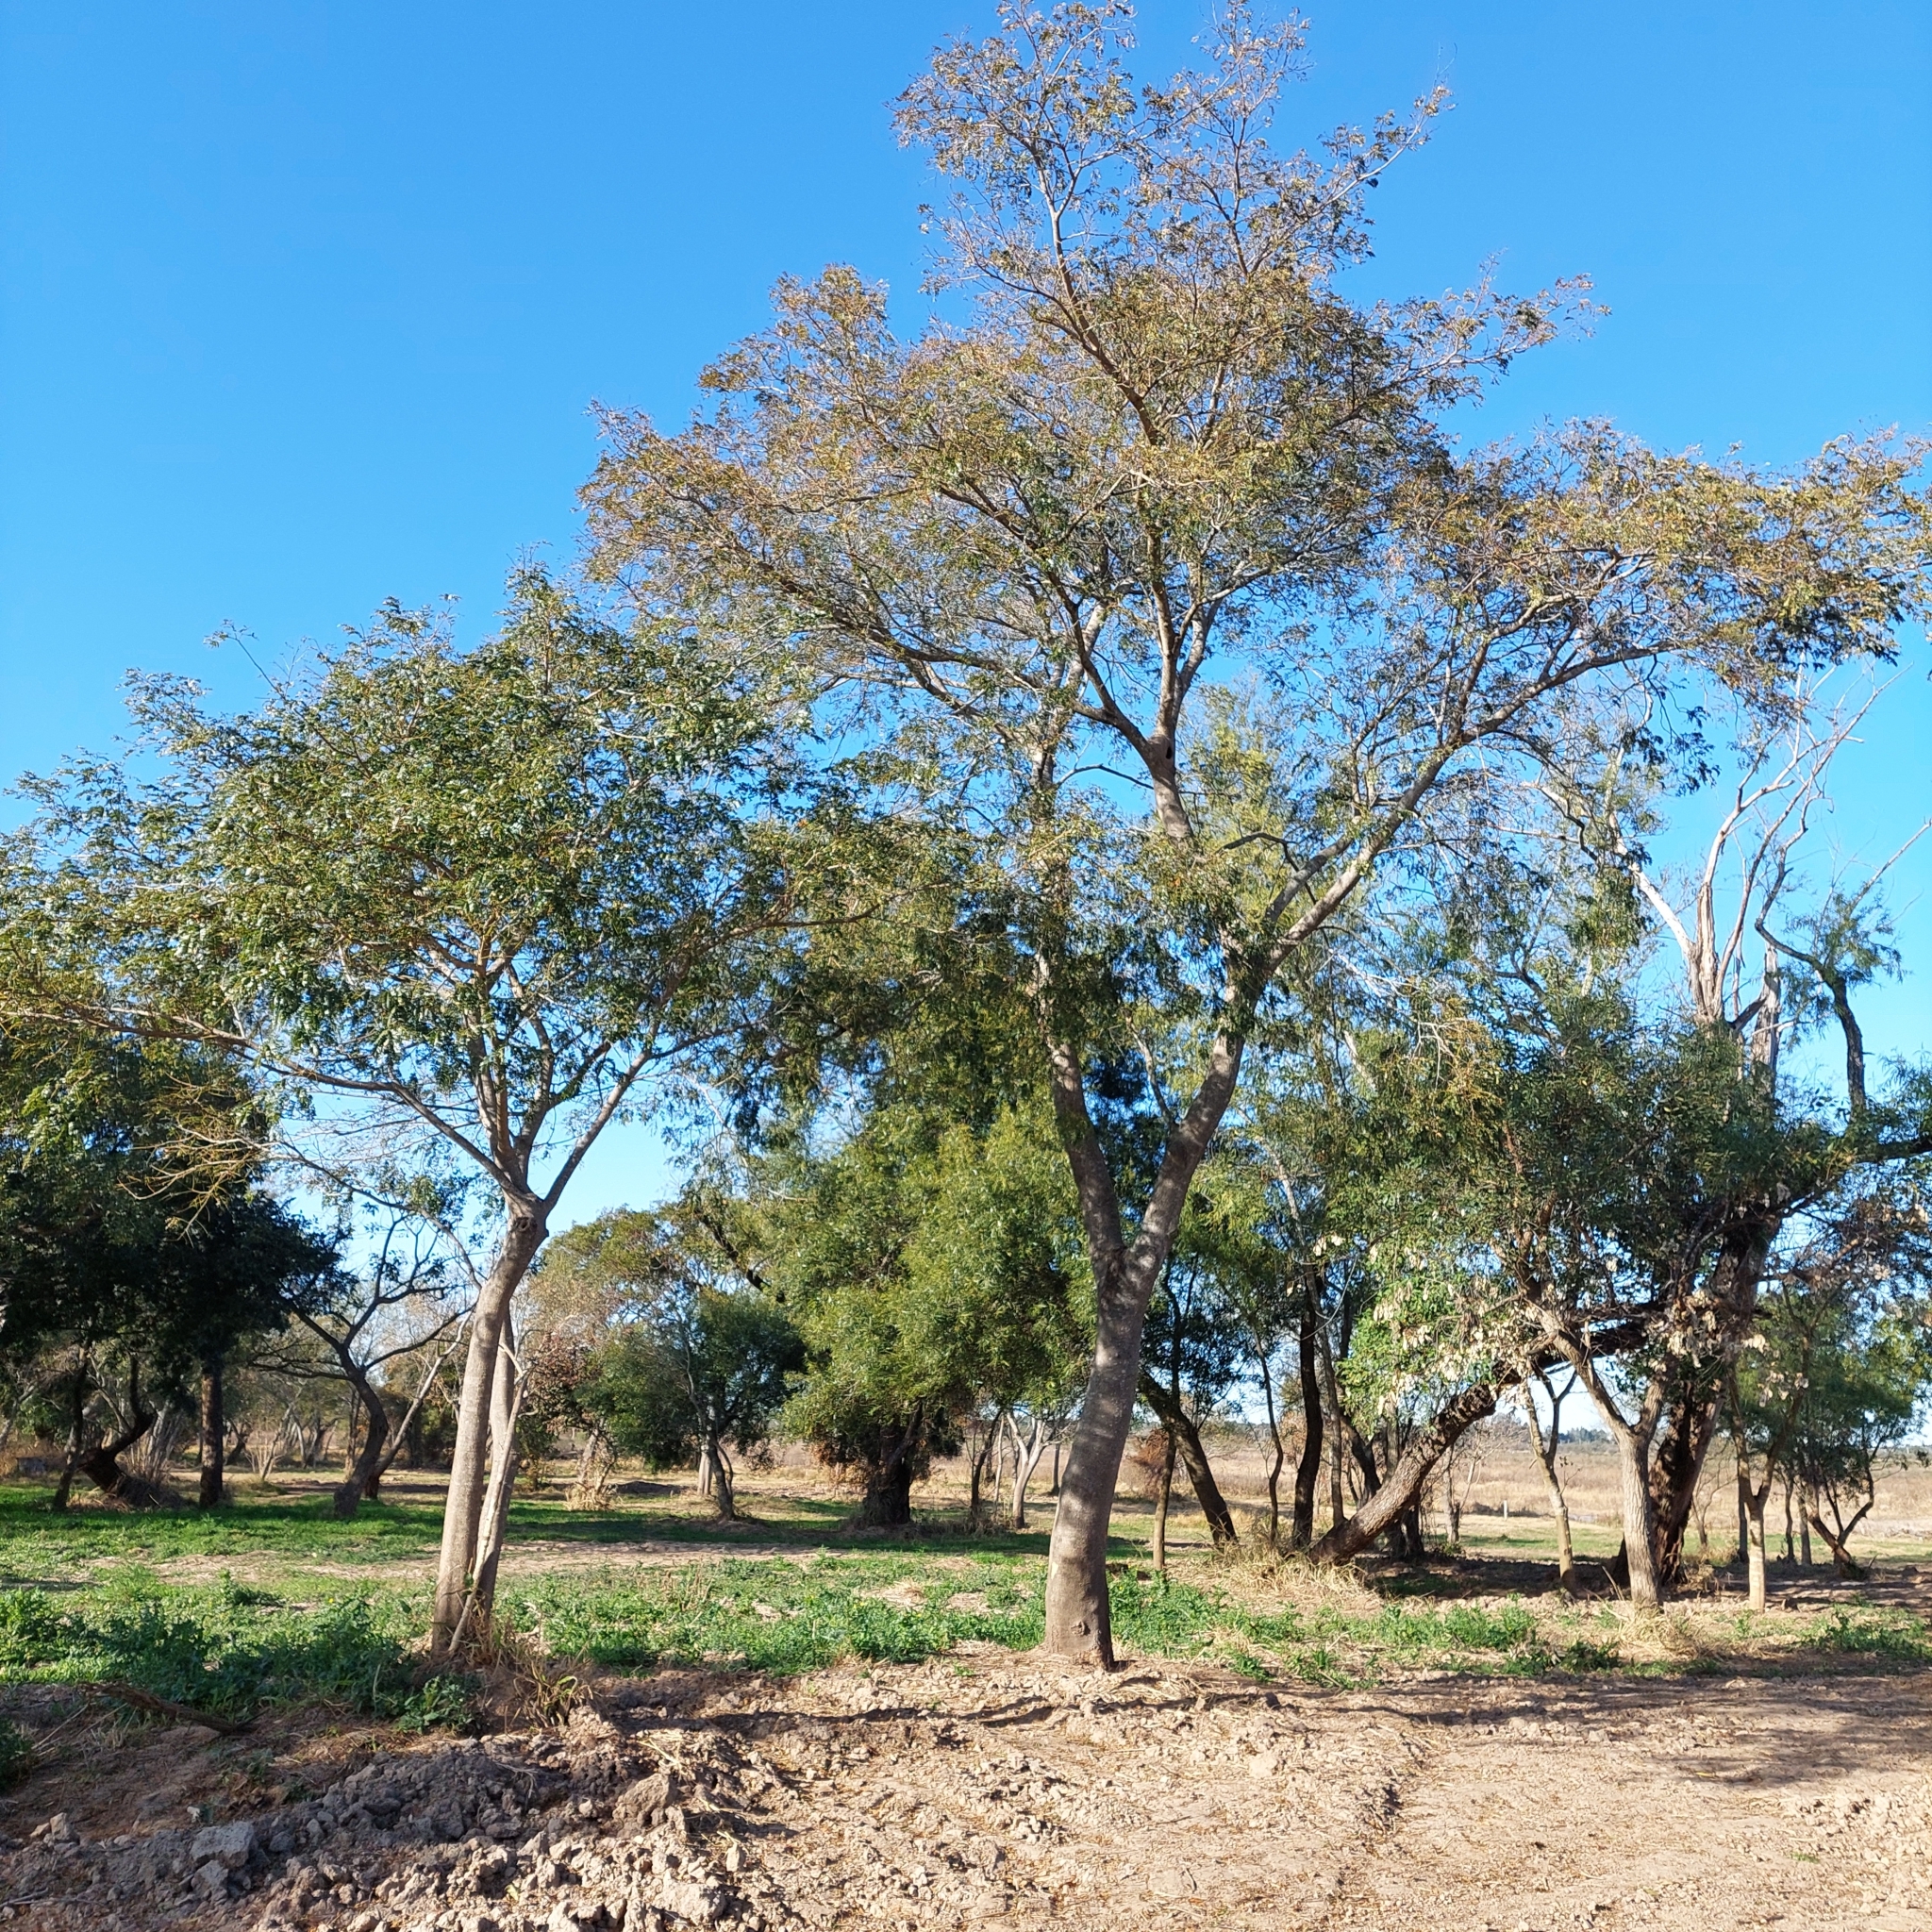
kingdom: Plantae
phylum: Tracheophyta
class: Magnoliopsida
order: Fabales
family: Fabaceae
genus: Albizia
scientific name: Albizia inundata
